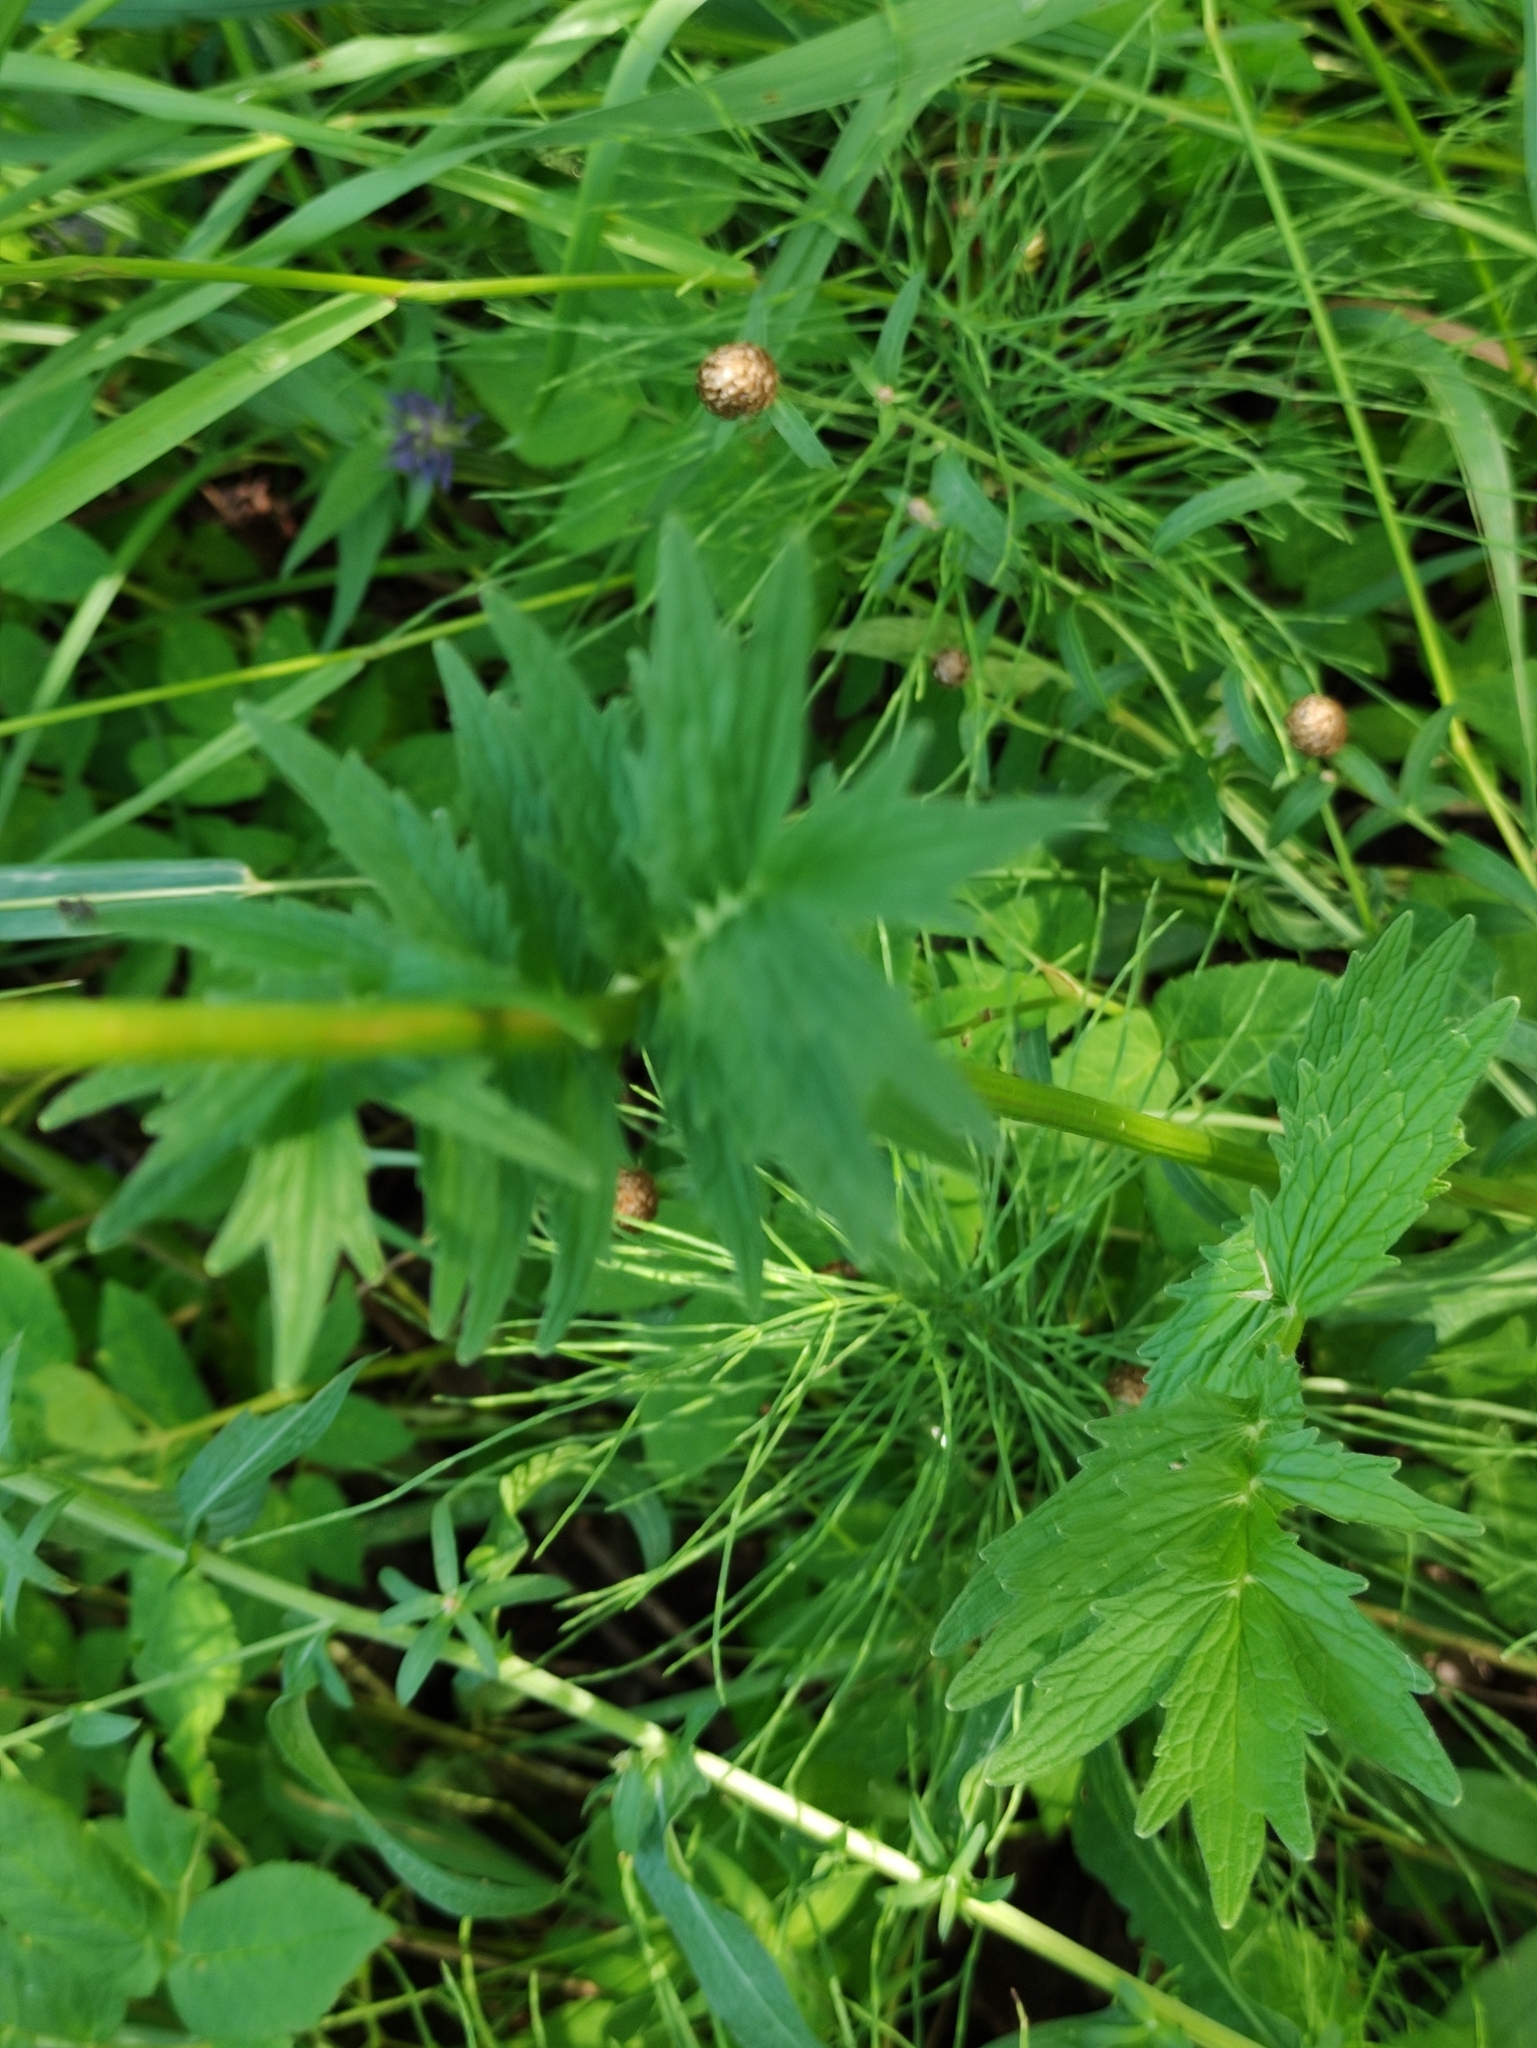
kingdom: Plantae
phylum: Tracheophyta
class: Magnoliopsida
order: Dipsacales
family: Caprifoliaceae
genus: Valeriana
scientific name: Valeriana officinalis
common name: Common valerian
